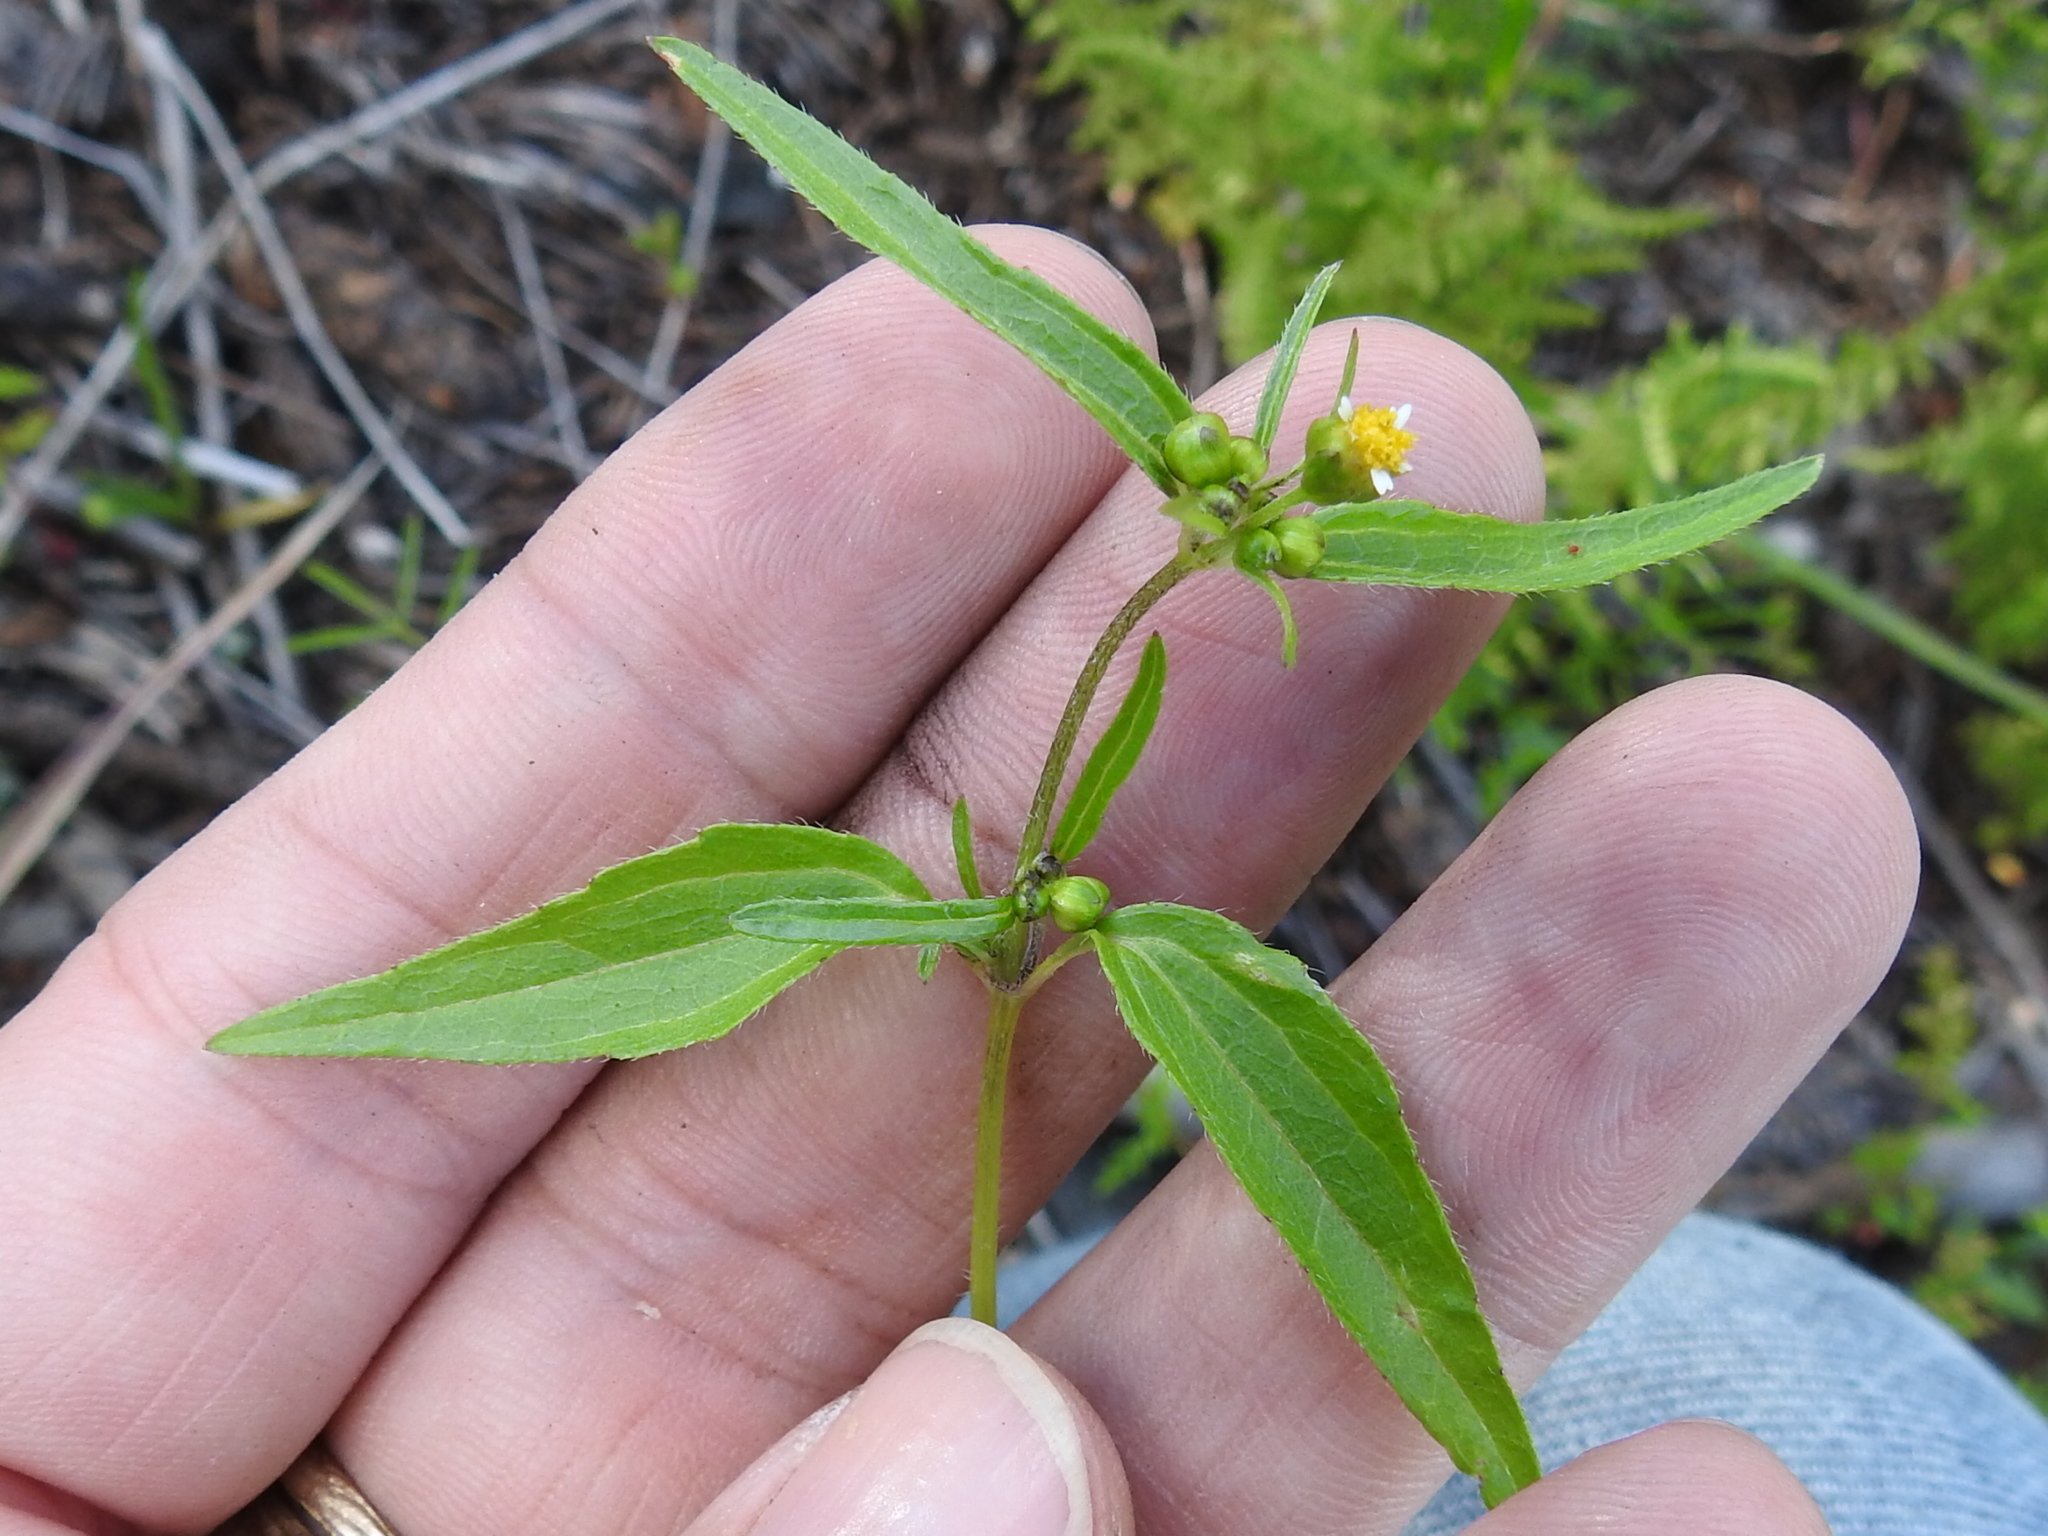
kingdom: Plantae
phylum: Tracheophyta
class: Magnoliopsida
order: Asterales
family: Asteraceae
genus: Galinsoga
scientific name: Galinsoga parviflora
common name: Gallant soldier
